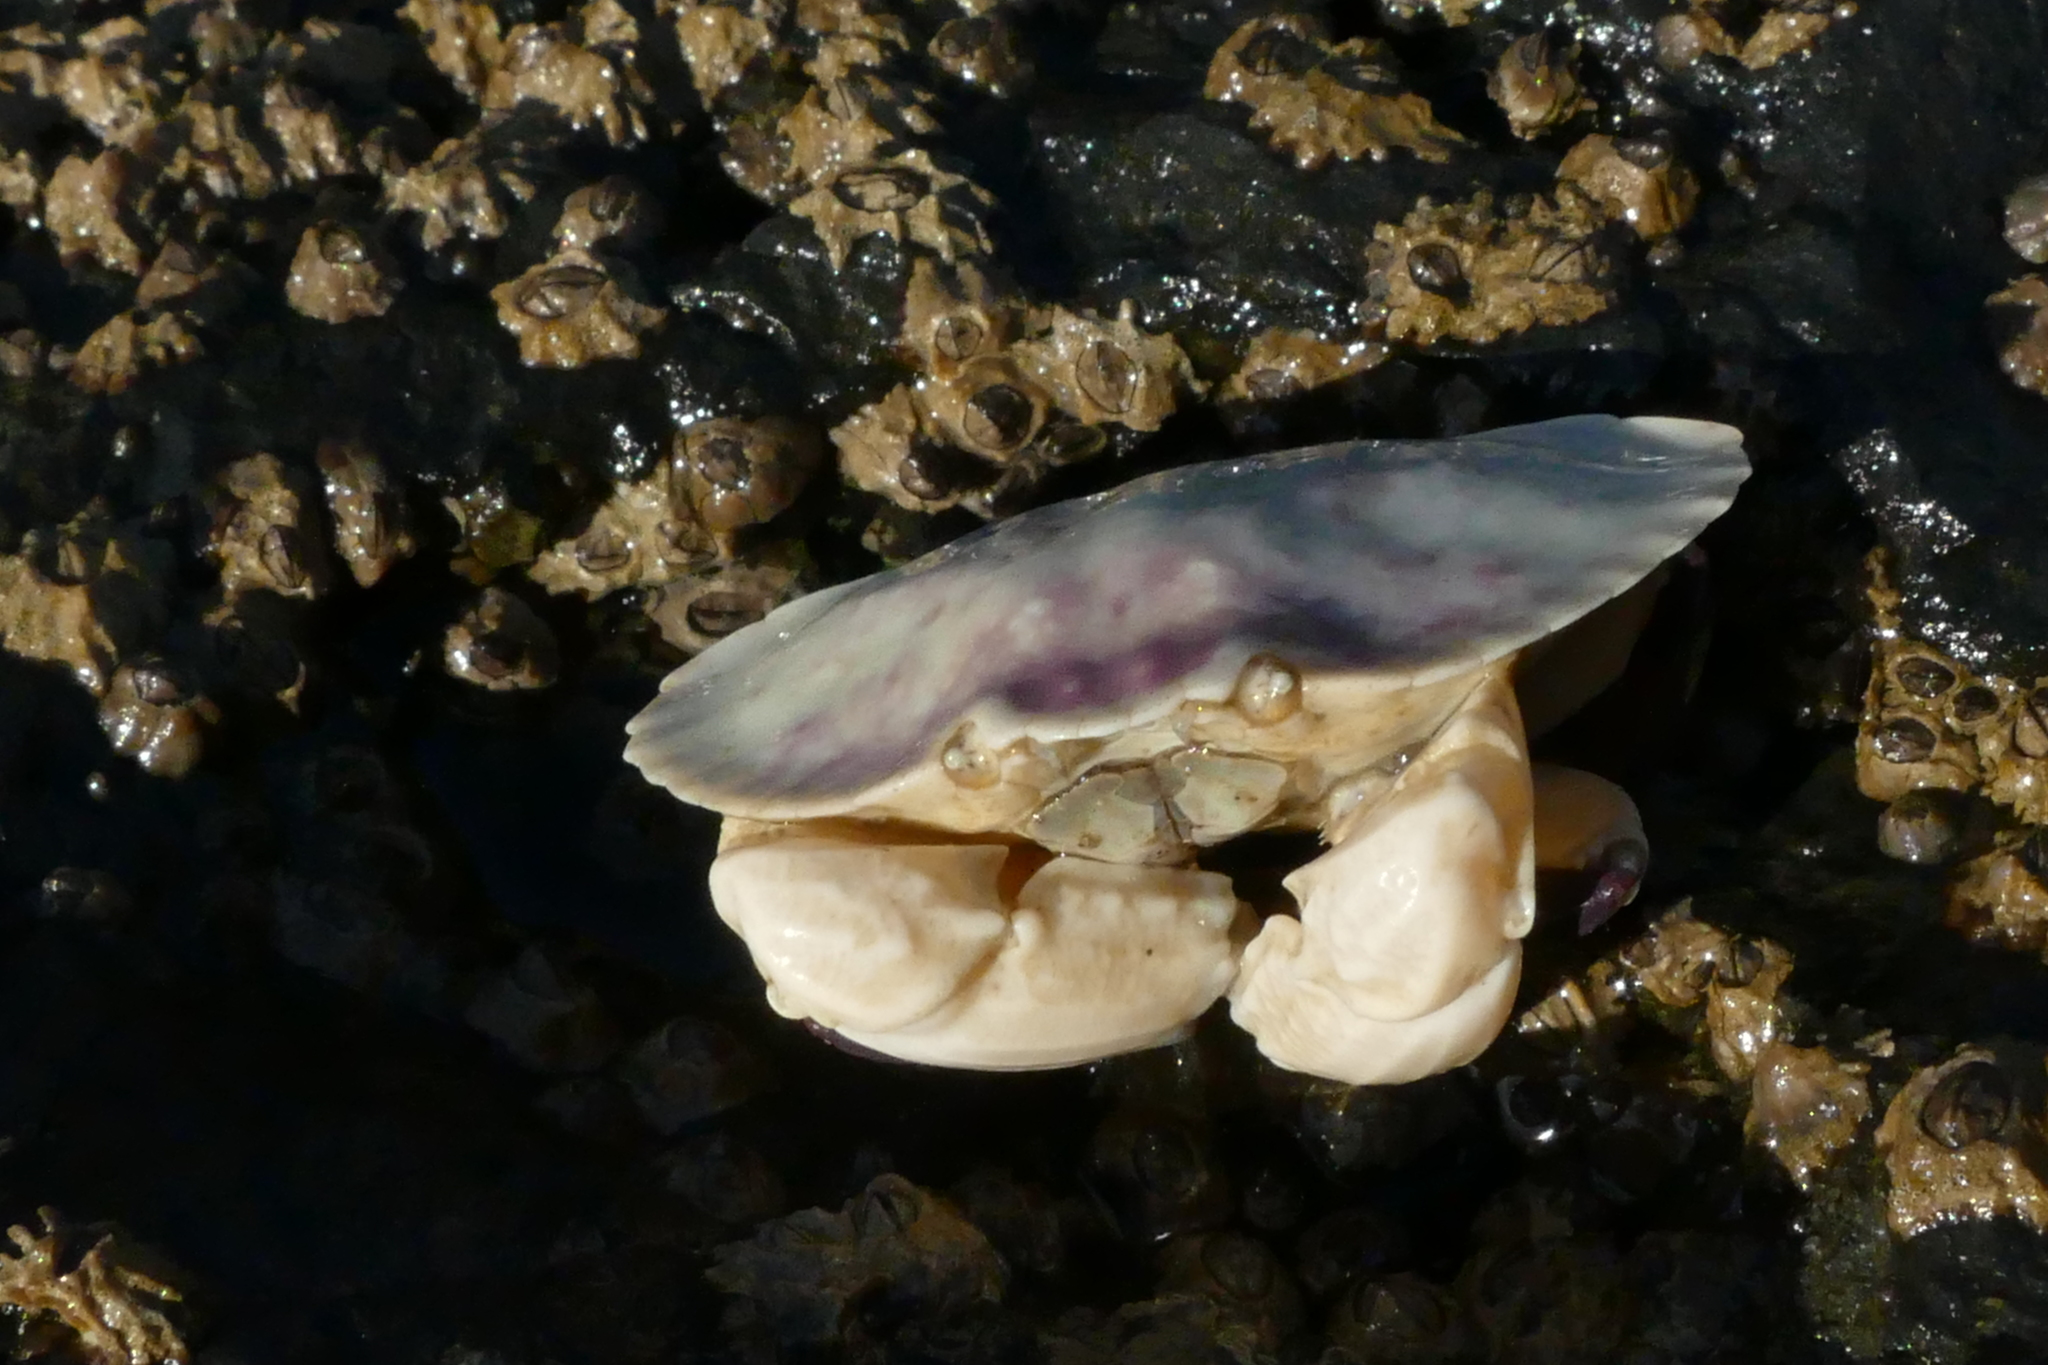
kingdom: Animalia
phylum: Arthropoda
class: Malacostraca
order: Decapoda
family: Cancridae
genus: Cancer
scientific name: Cancer productus
